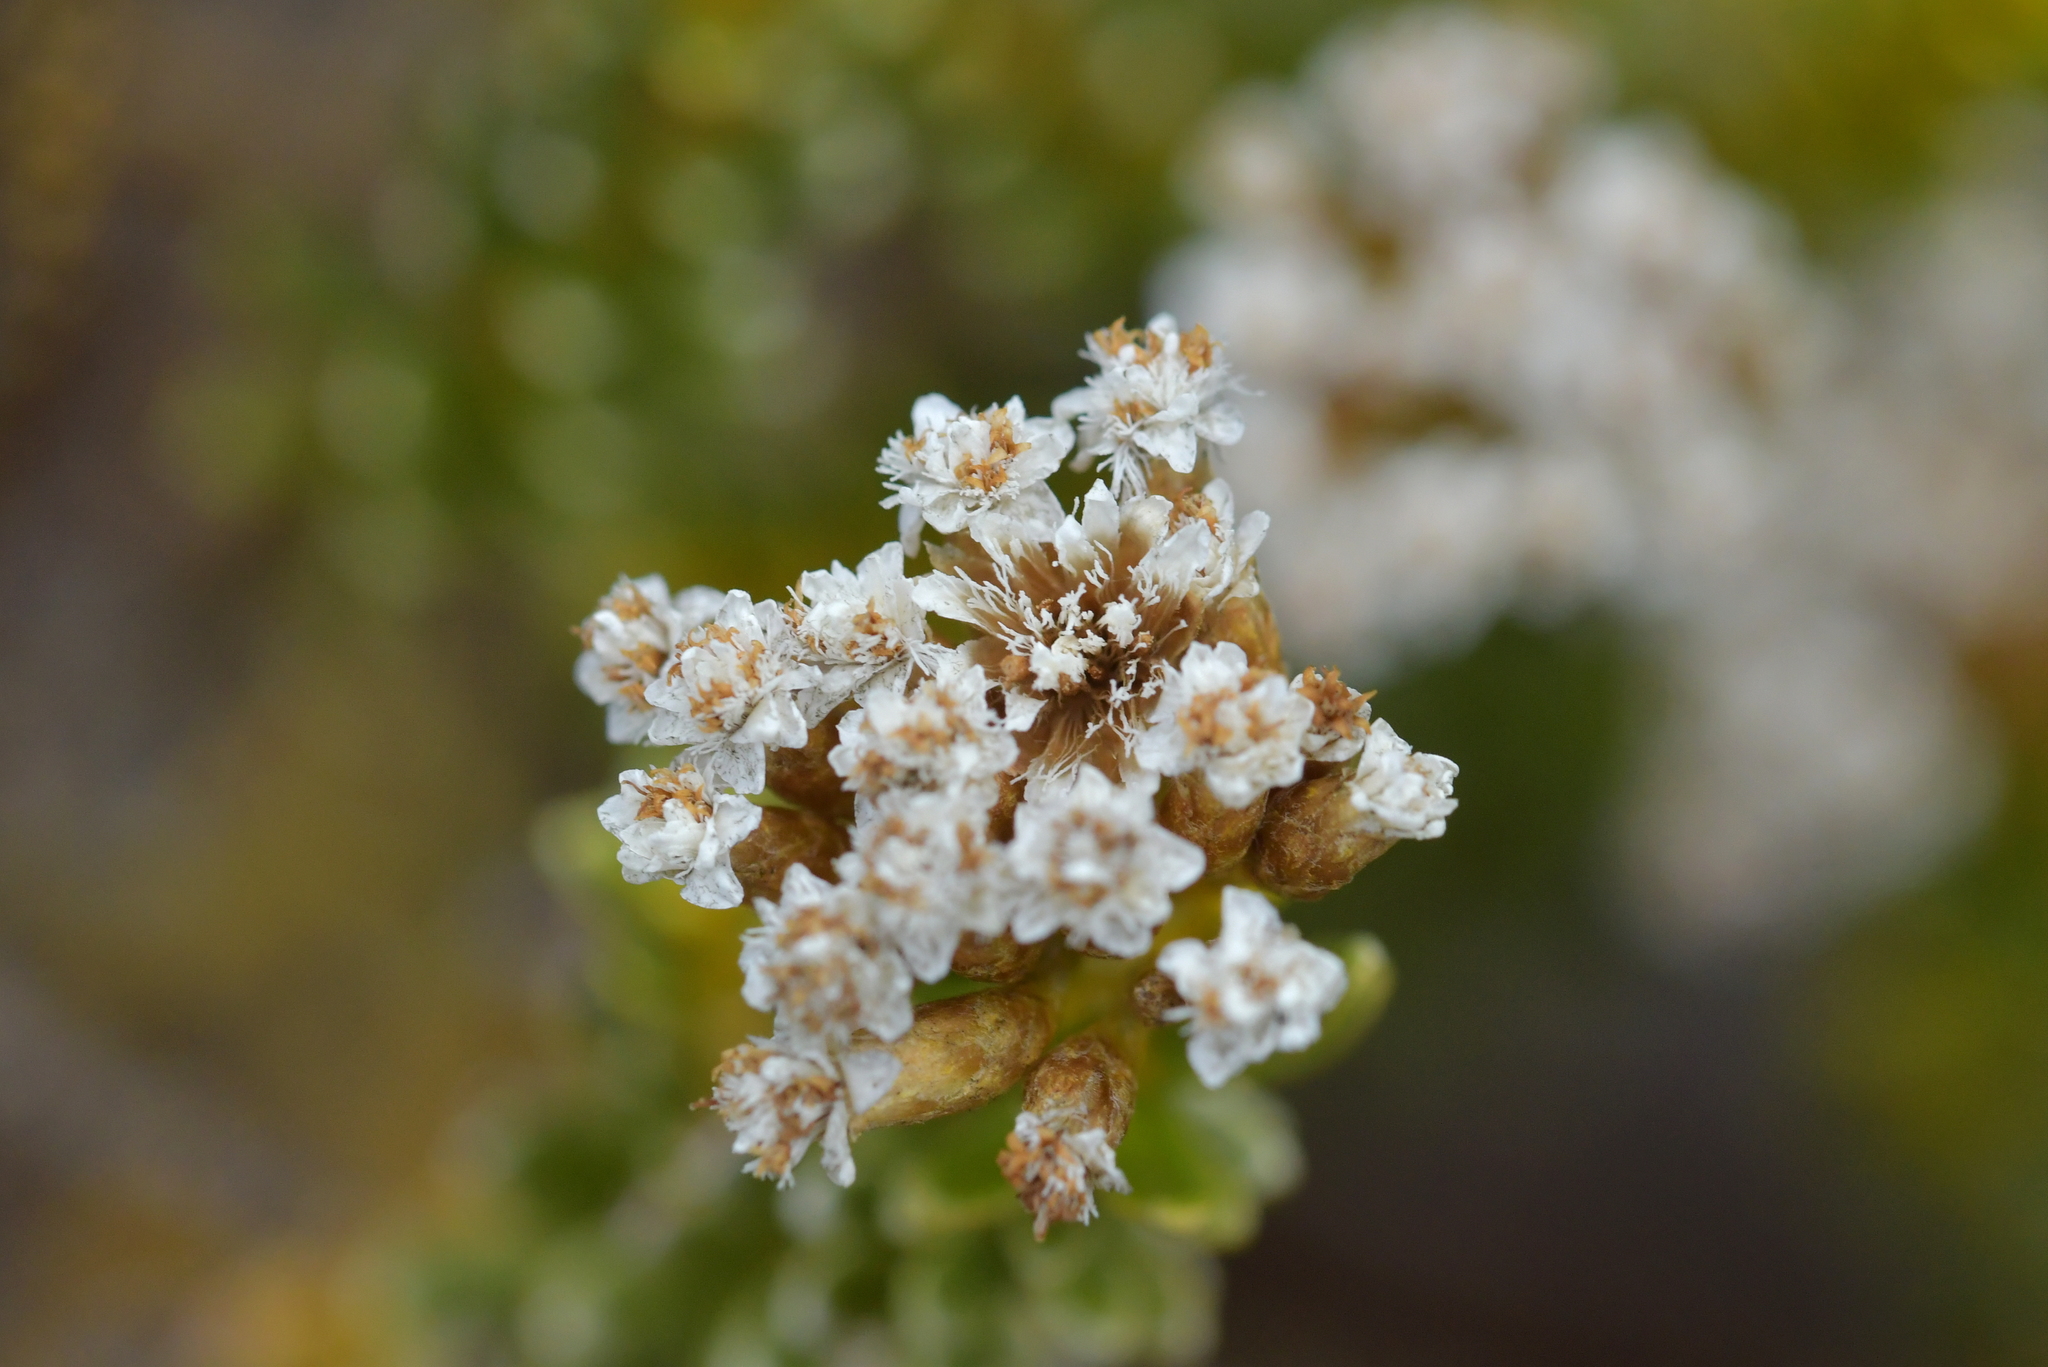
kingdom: Plantae
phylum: Tracheophyta
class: Magnoliopsida
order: Asterales
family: Asteraceae
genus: Ozothamnus
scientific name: Ozothamnus leptophyllus
